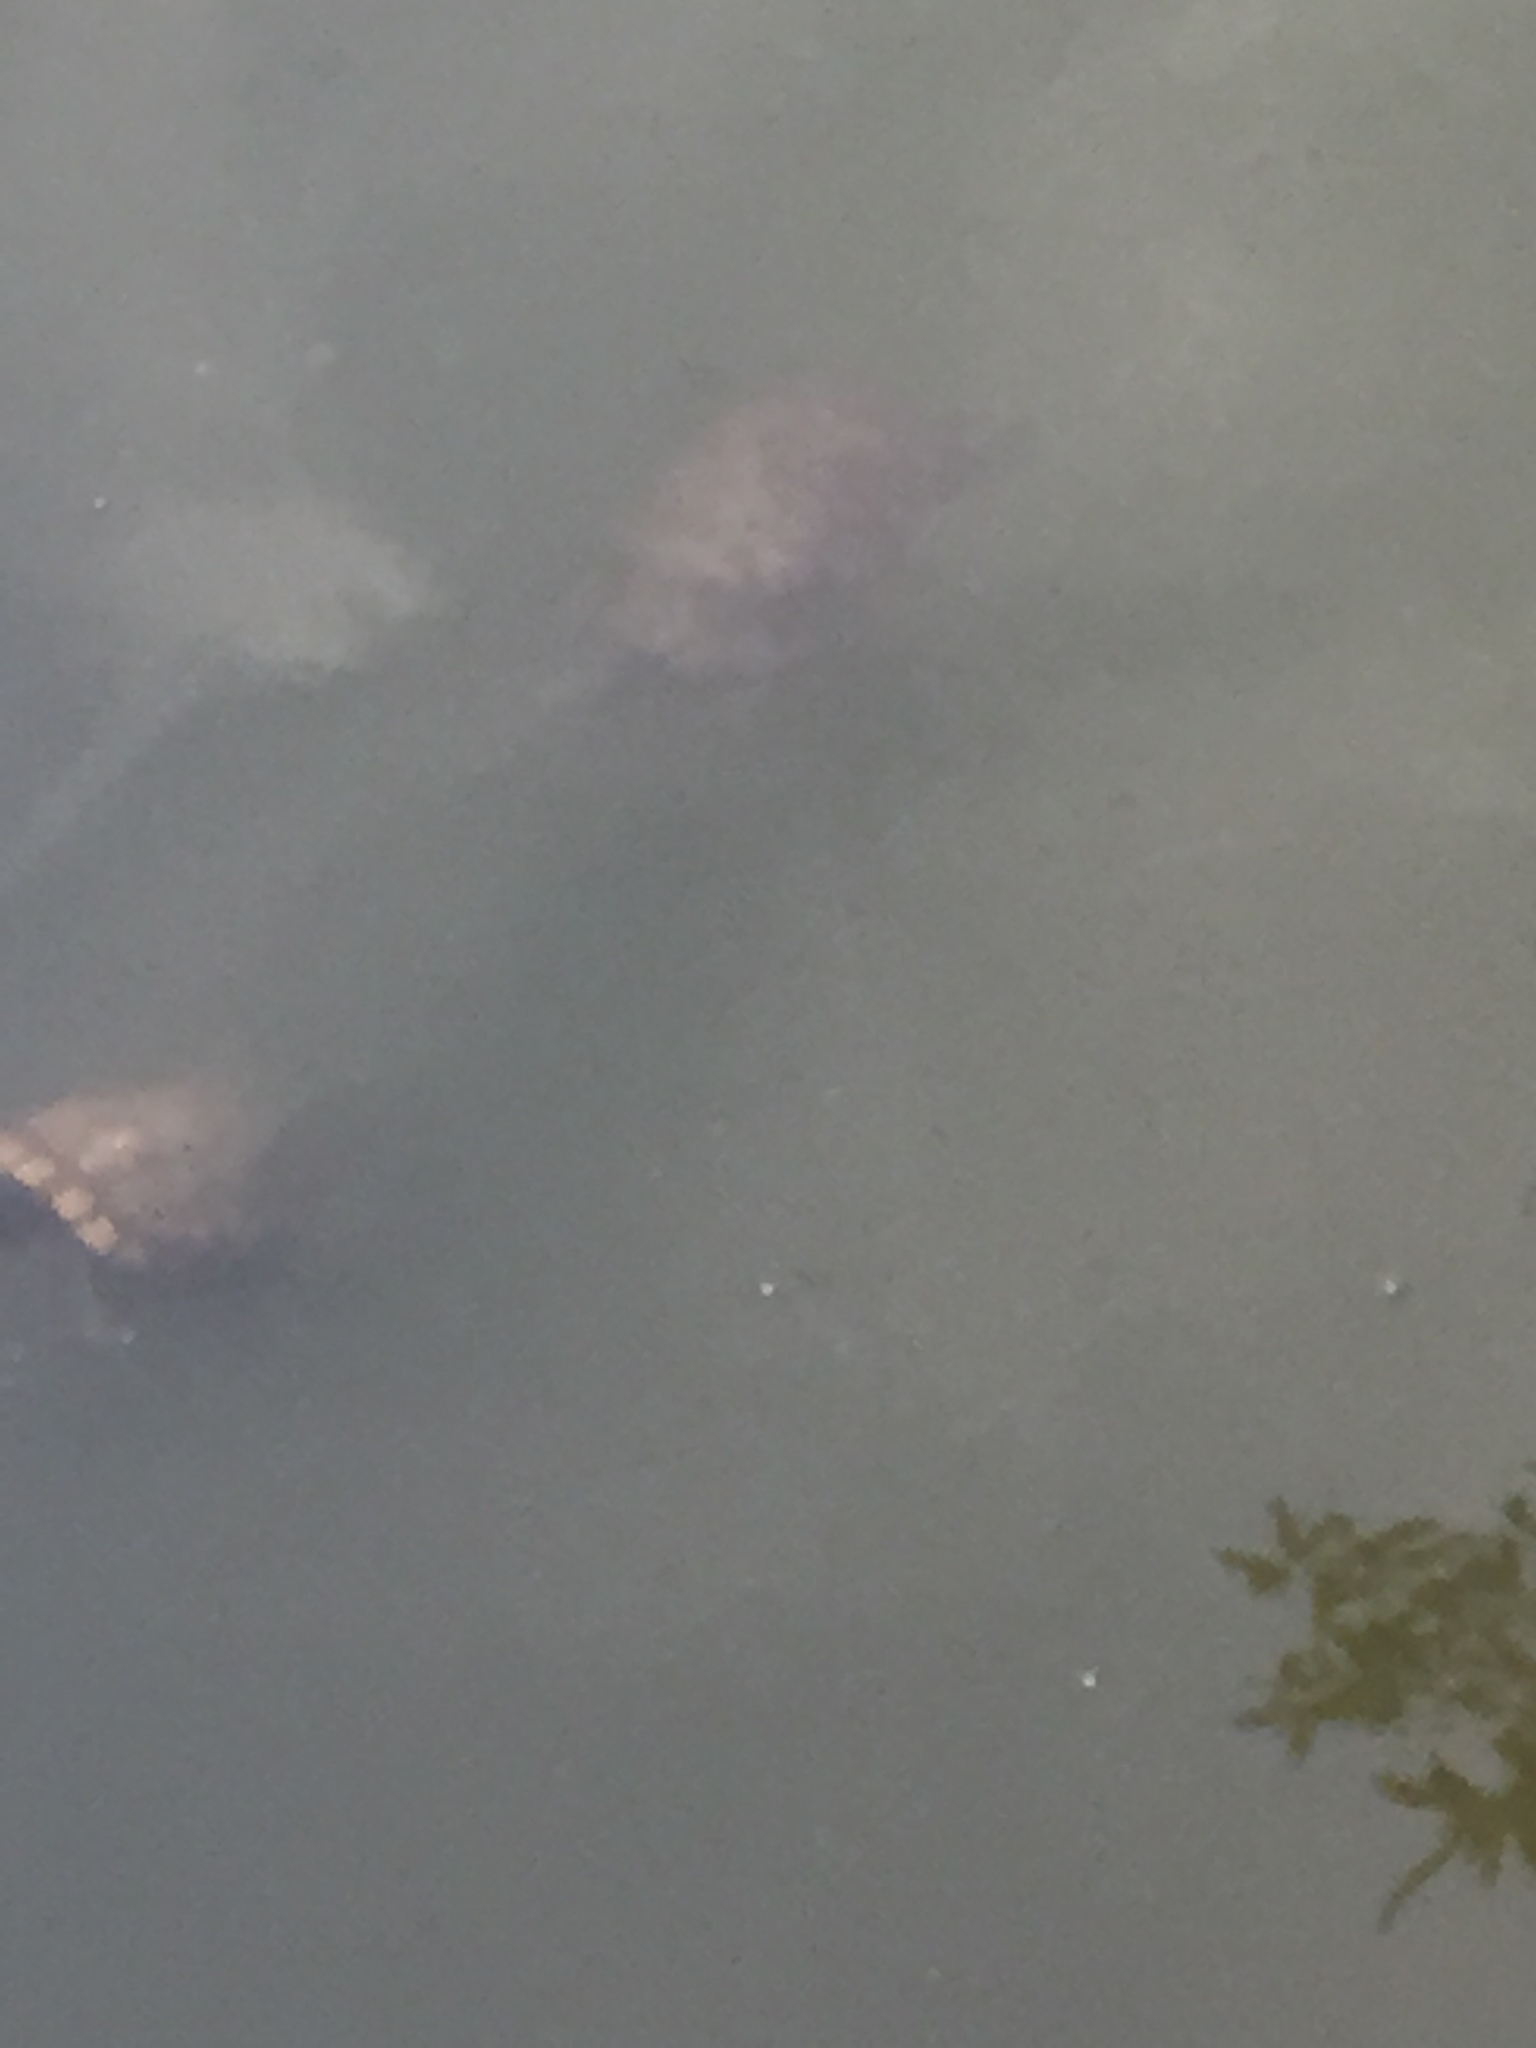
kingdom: Animalia
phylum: Chordata
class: Testudines
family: Emydidae
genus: Trachemys
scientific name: Trachemys scripta
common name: Slider
